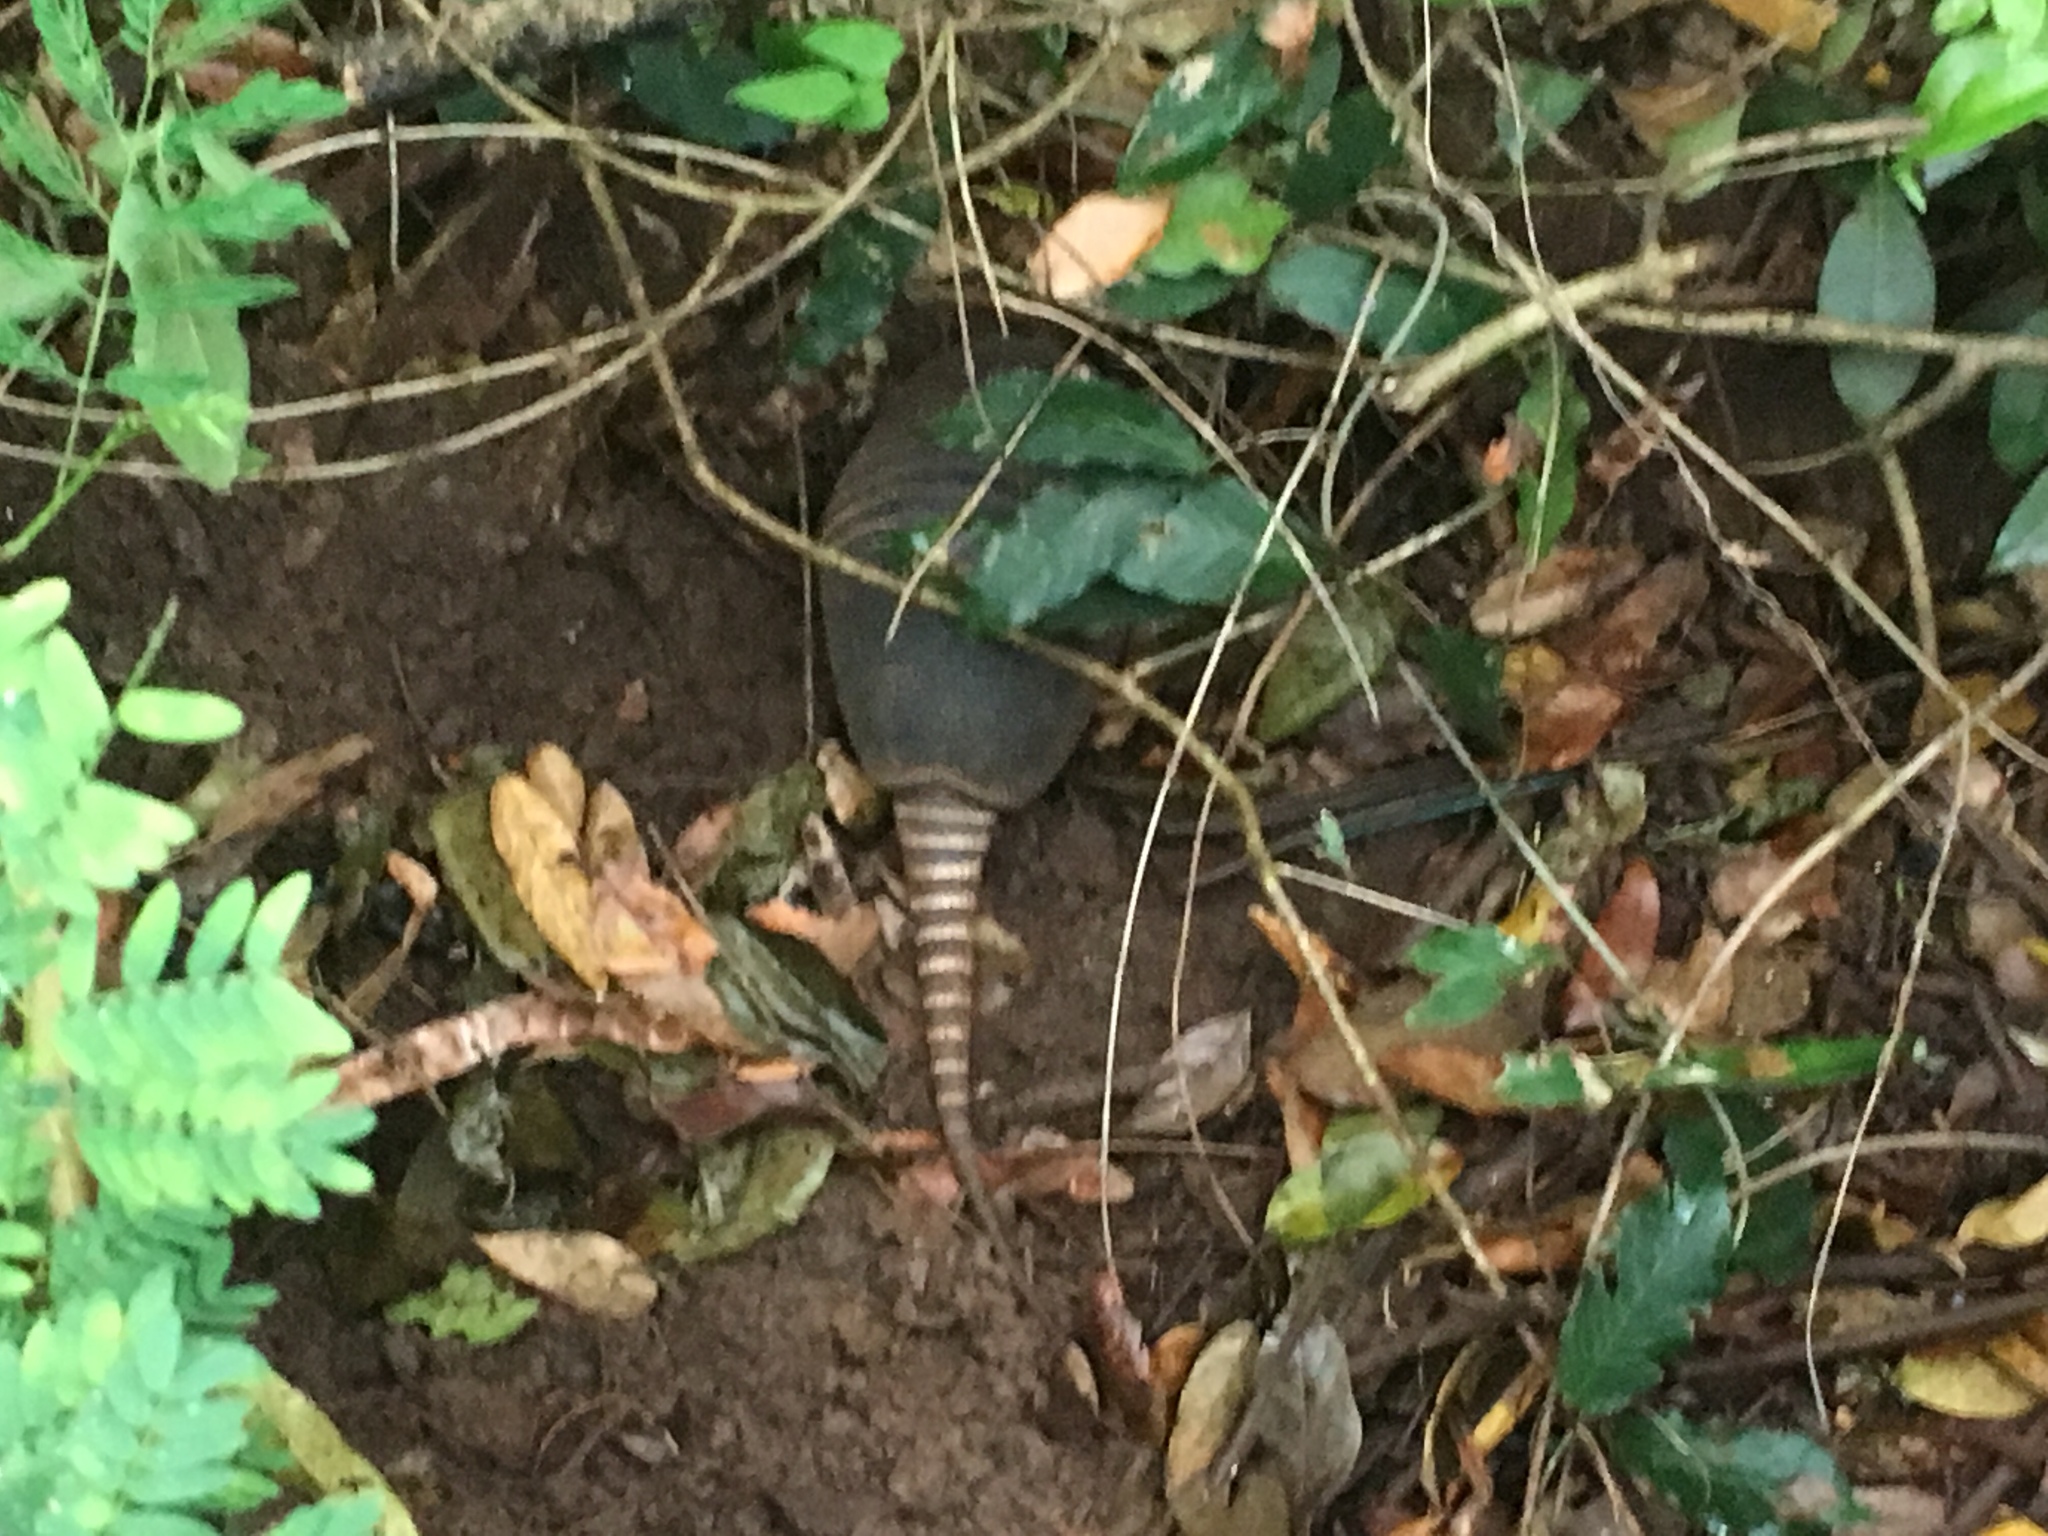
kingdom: Animalia
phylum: Chordata
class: Mammalia
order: Cingulata
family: Dasypodidae
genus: Dasypus
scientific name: Dasypus septemcinctus
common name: Seven-banded armadillo
